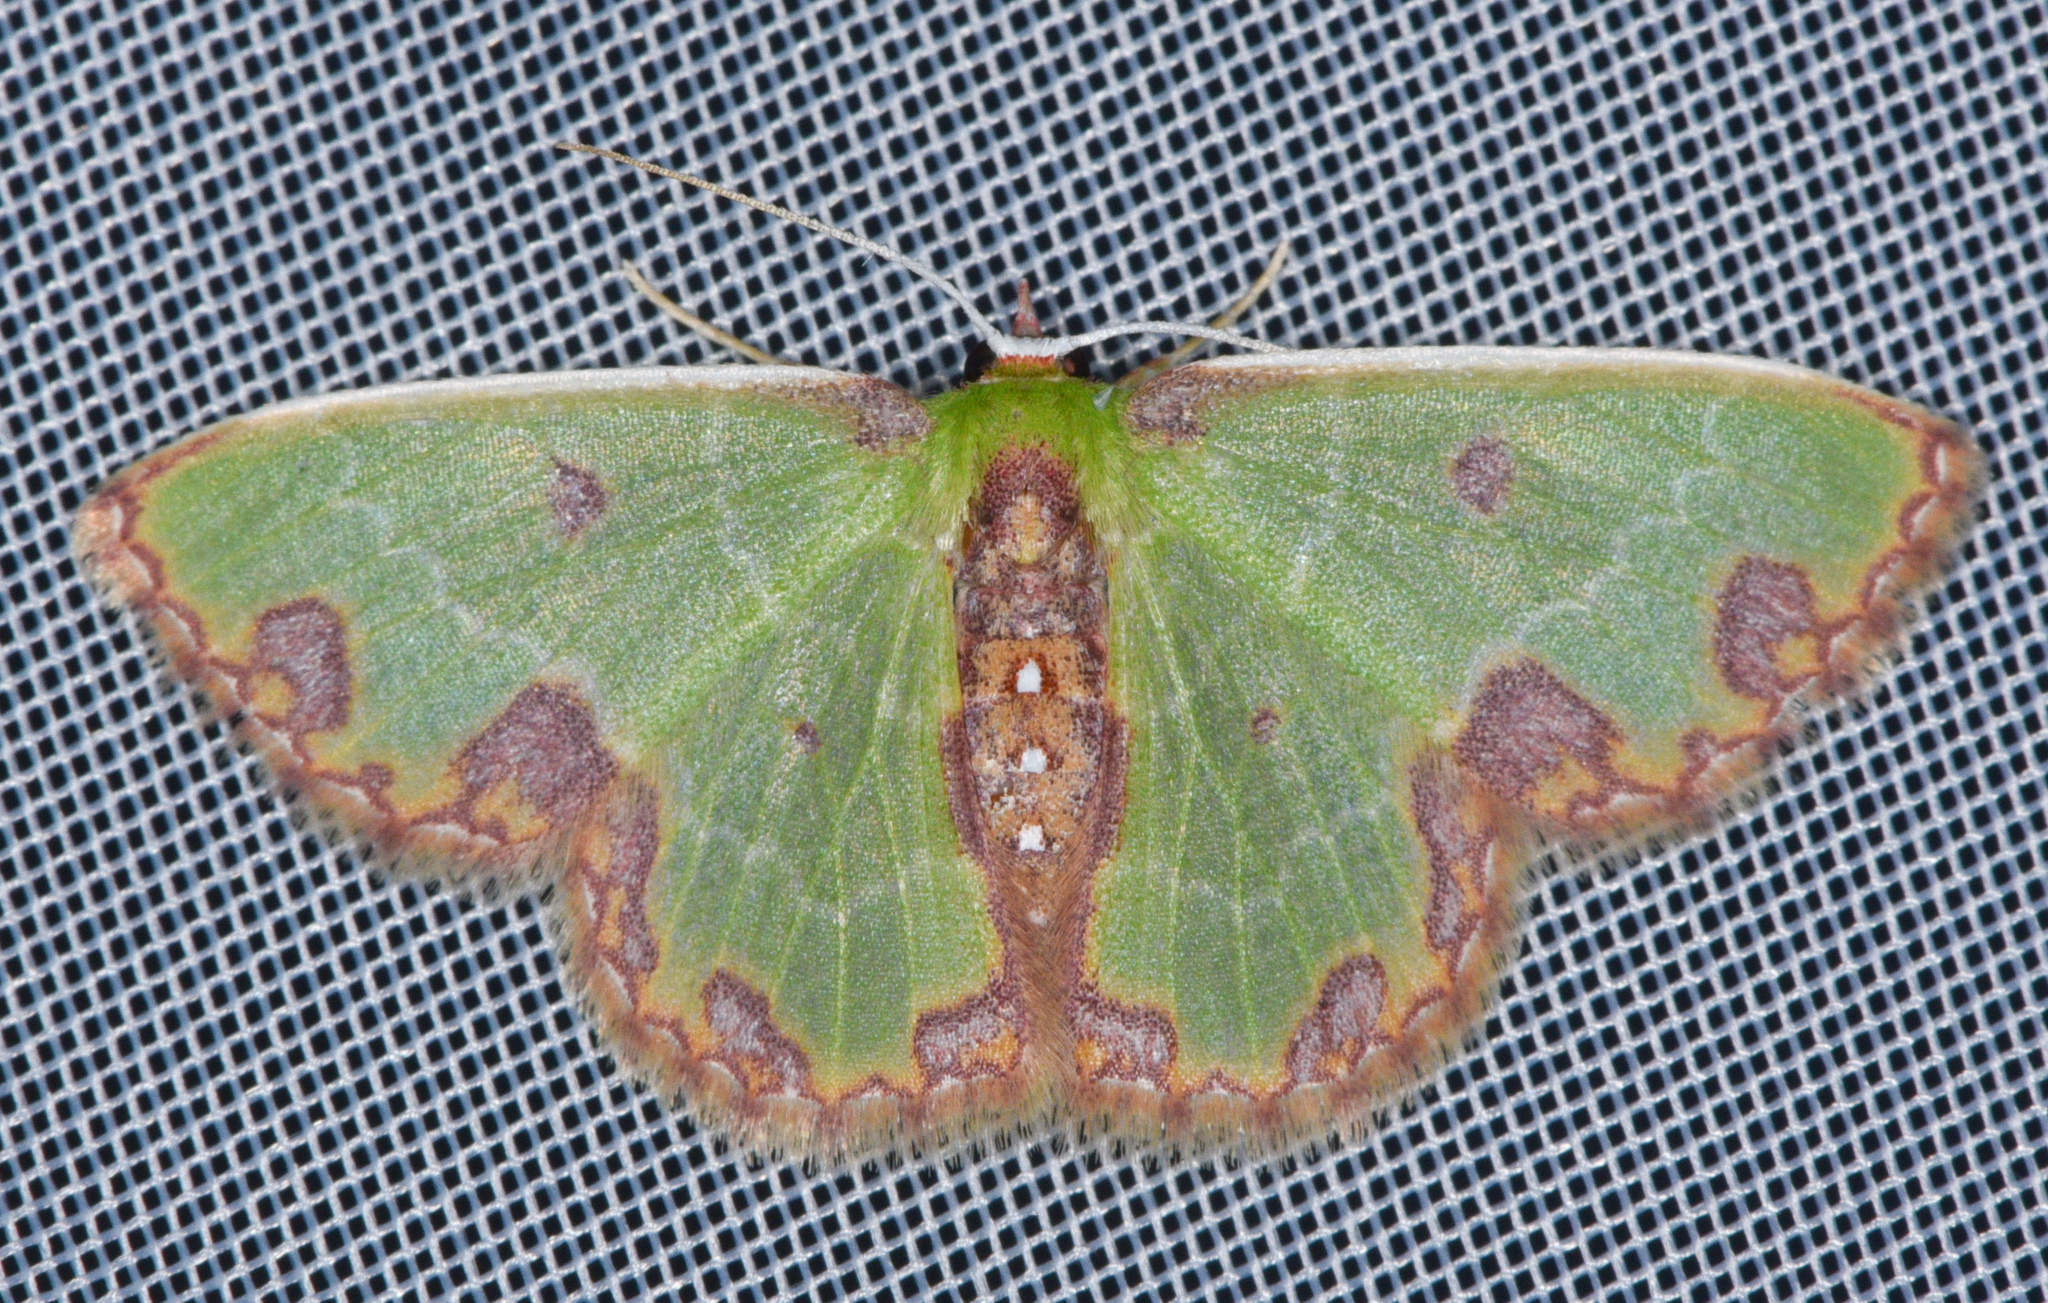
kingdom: Animalia
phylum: Arthropoda
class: Insecta
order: Lepidoptera
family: Geometridae
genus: Synchlora
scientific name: Synchlora gerularia
